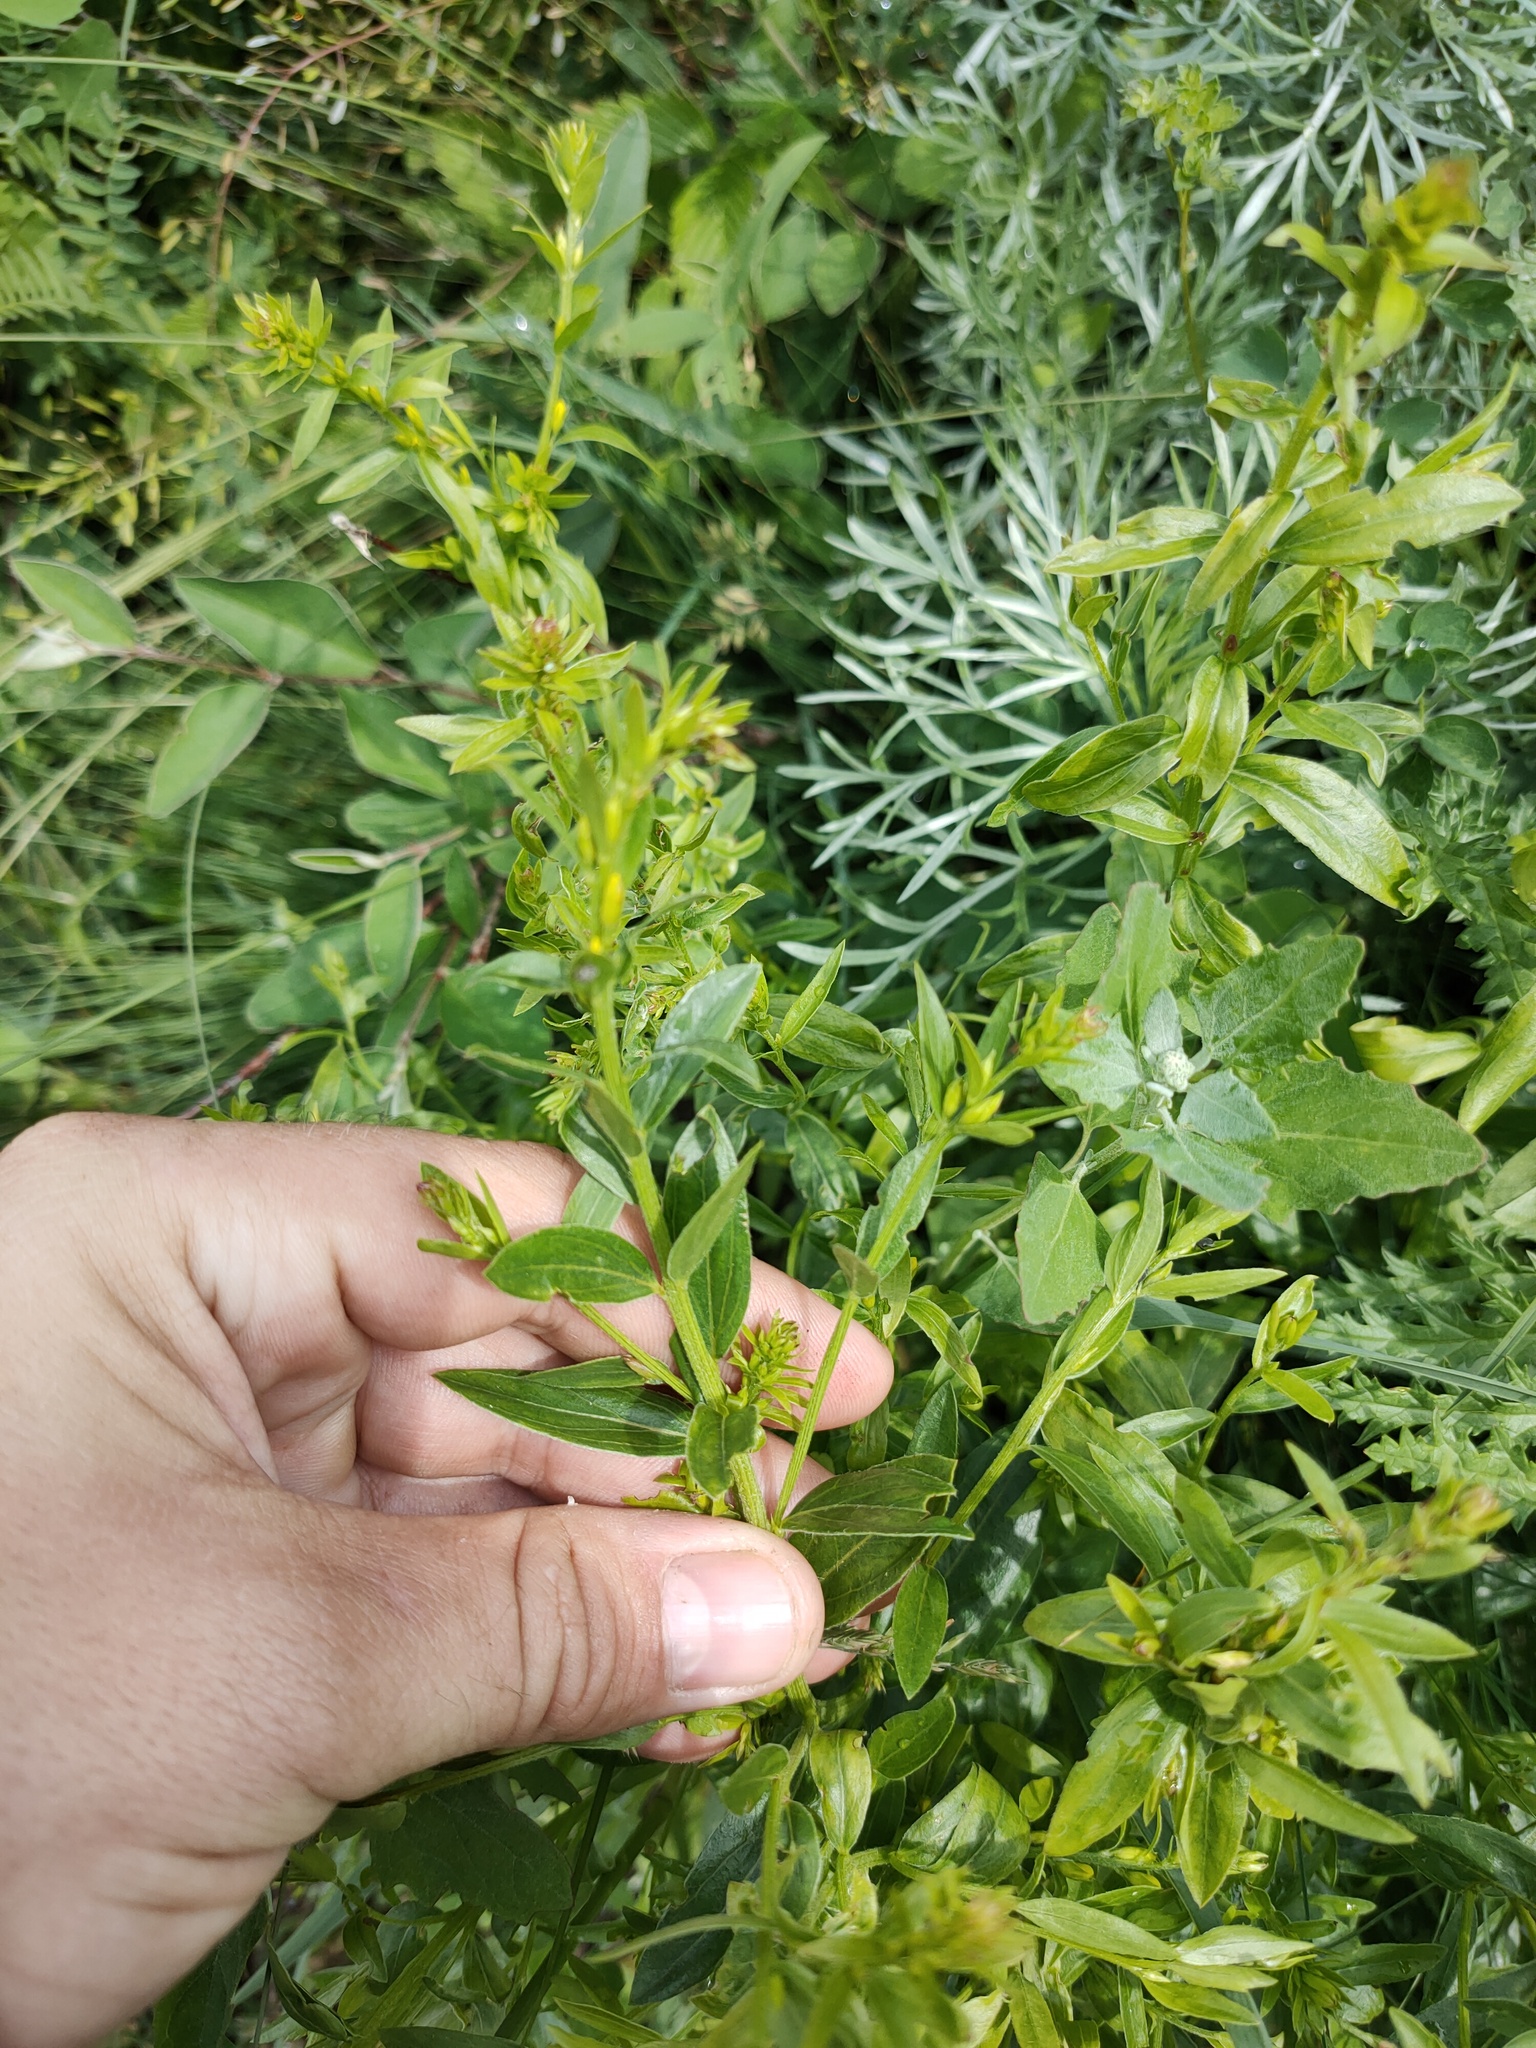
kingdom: Plantae
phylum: Tracheophyta
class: Magnoliopsida
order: Fabales
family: Fabaceae
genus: Genista
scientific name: Genista tinctoria
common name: Dyer's greenweed
